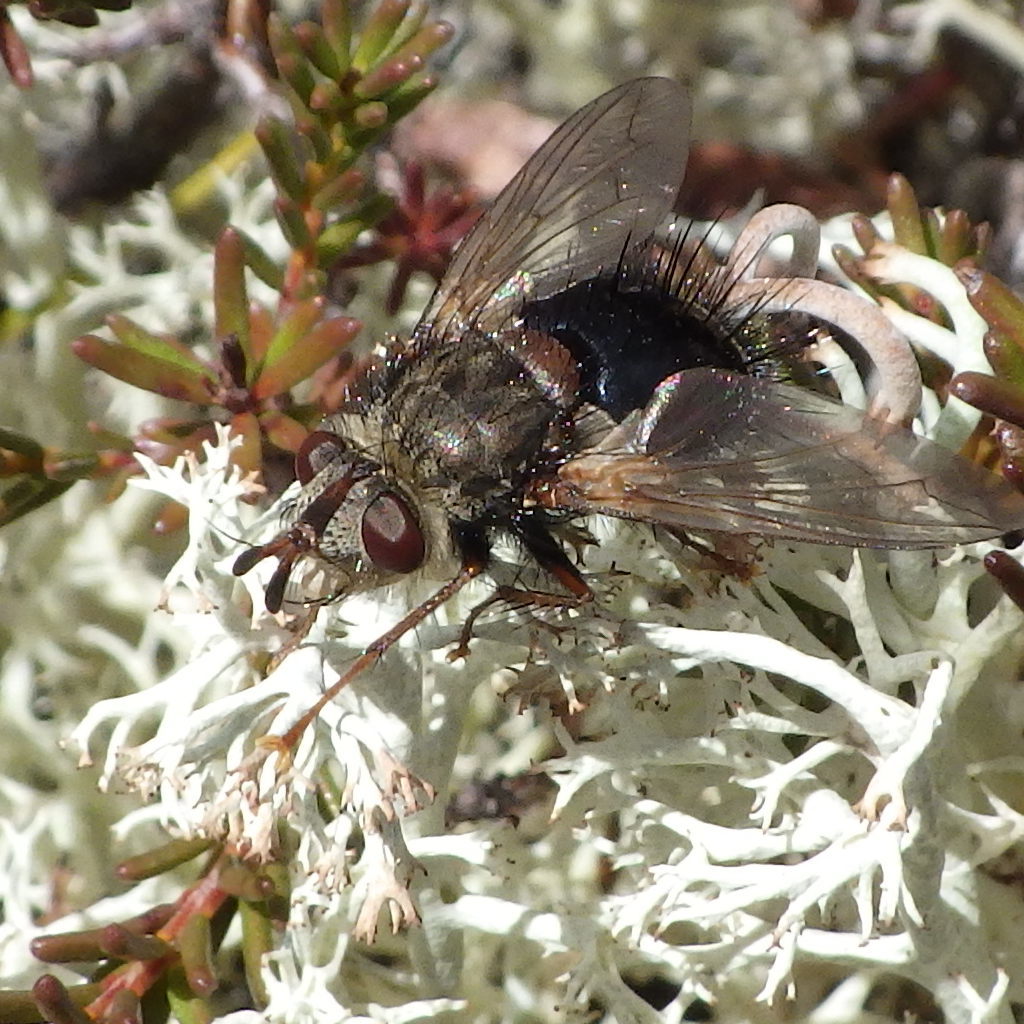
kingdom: Animalia
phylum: Arthropoda
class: Insecta
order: Diptera
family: Tachinidae
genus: Epalpus
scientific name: Epalpus signifer
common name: Early tachinid fly
